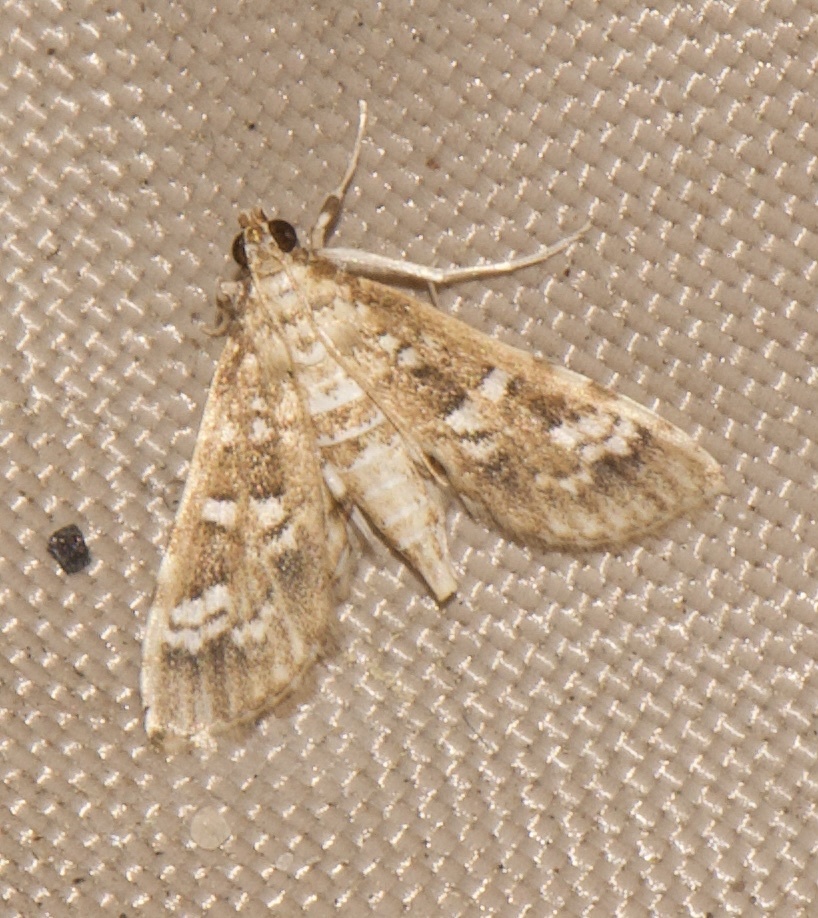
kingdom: Animalia
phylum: Arthropoda
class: Insecta
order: Lepidoptera
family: Crambidae
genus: Samea
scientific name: Samea multiplicalis
